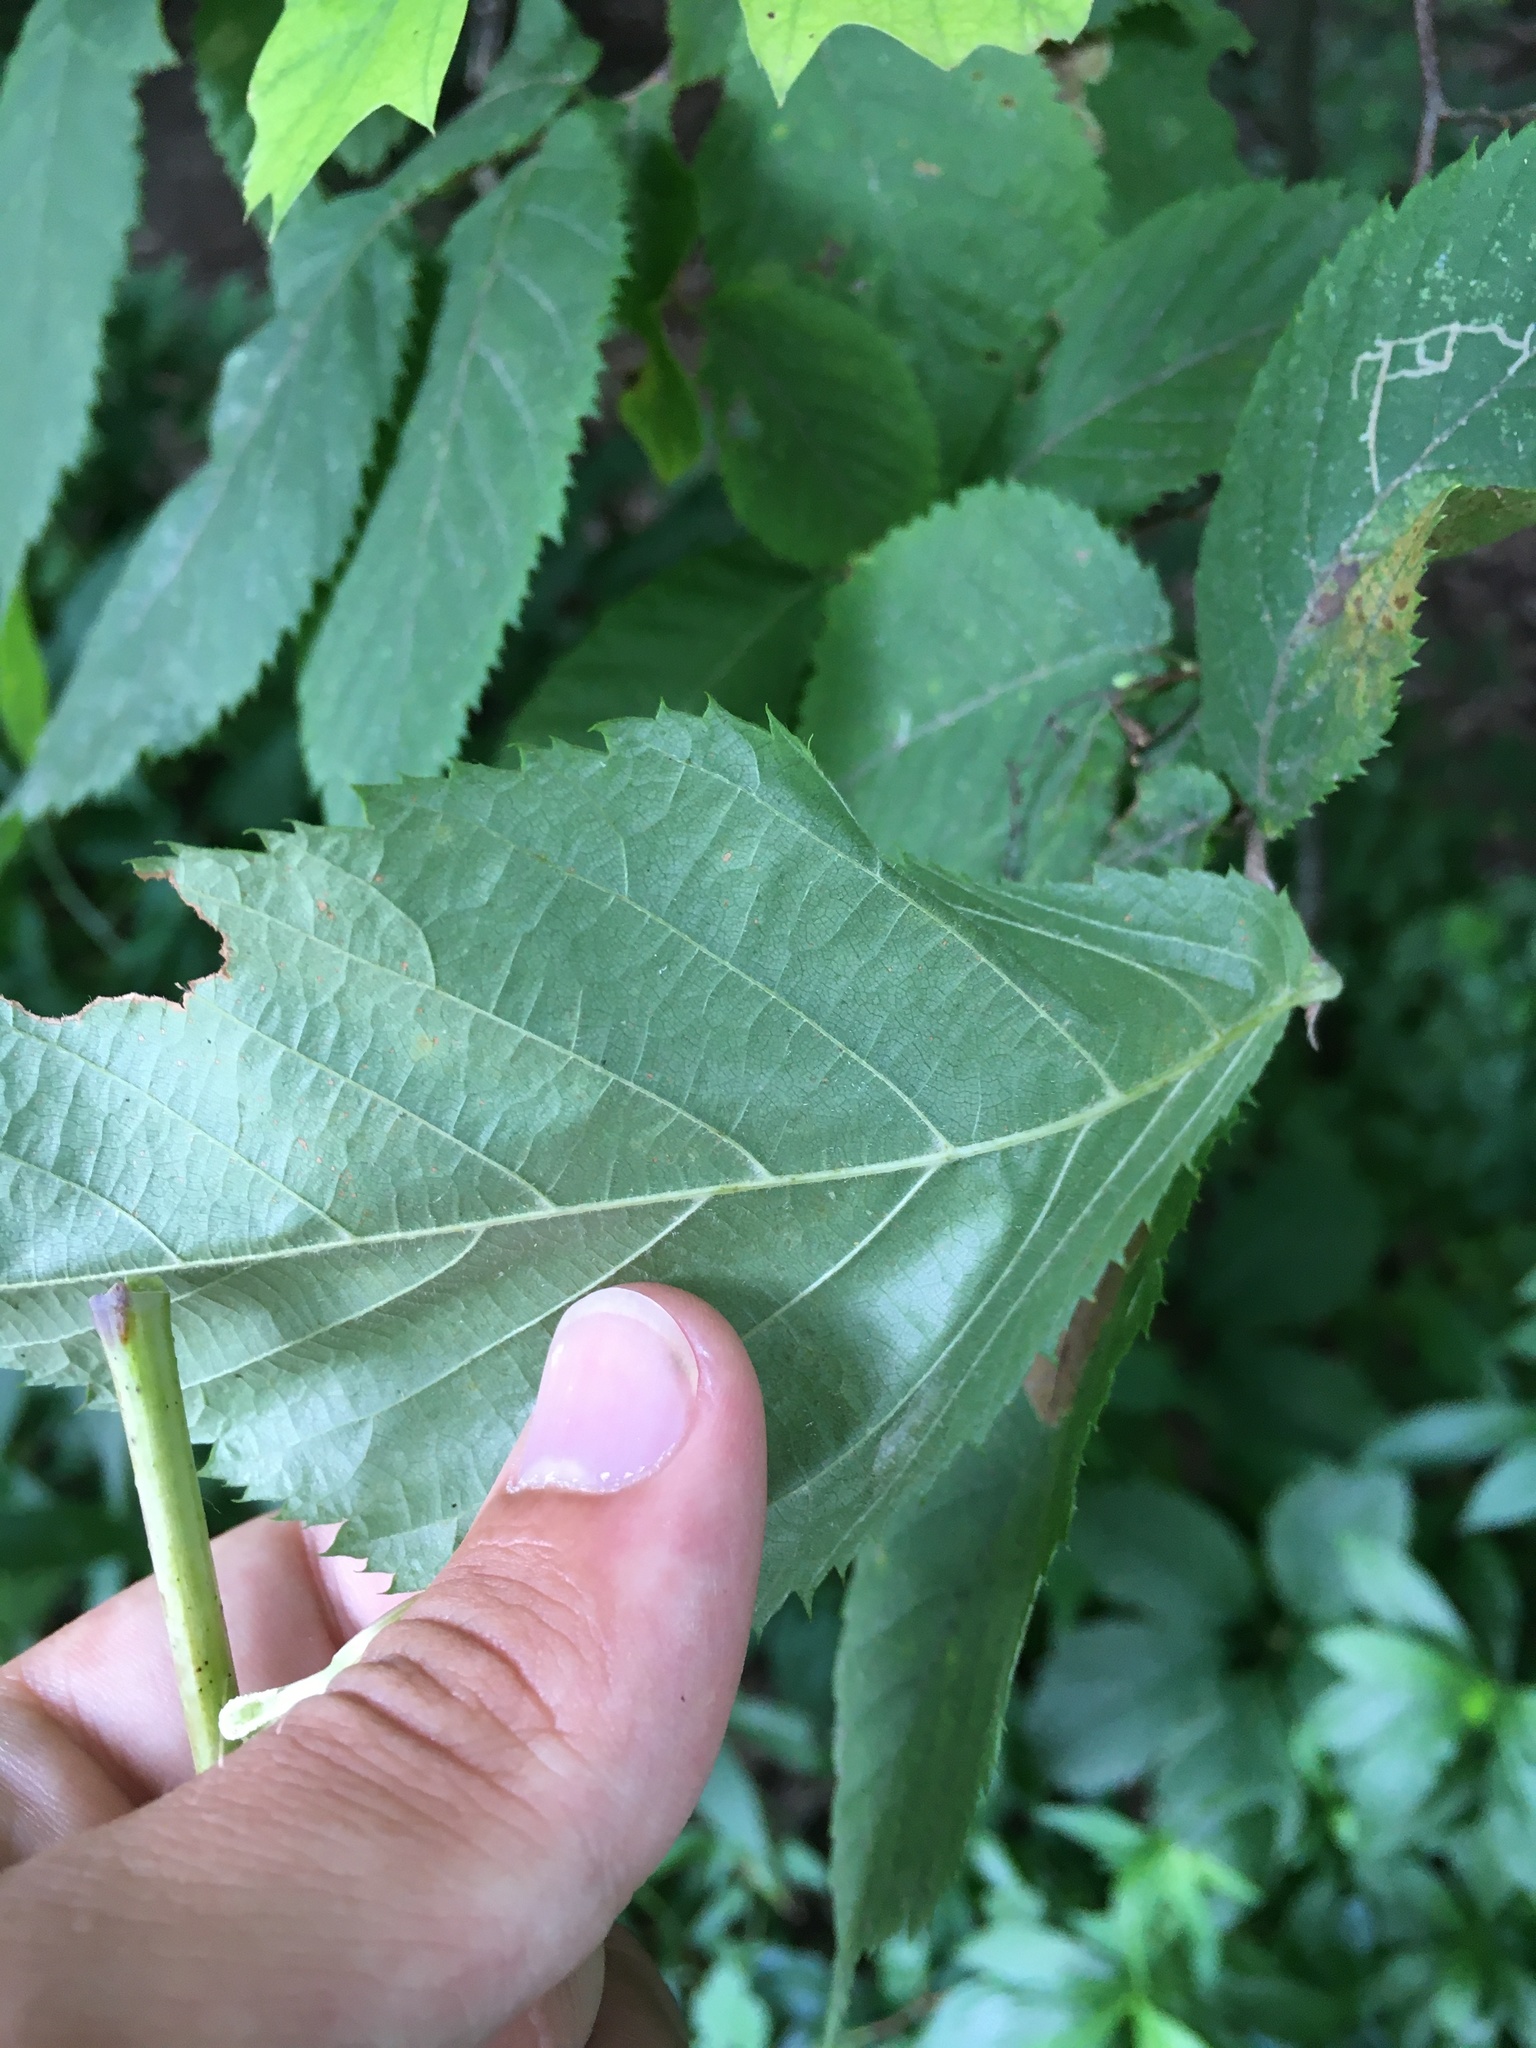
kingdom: Animalia
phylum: Arthropoda
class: Insecta
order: Lepidoptera
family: Gracillariidae
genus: Phyllonorycter
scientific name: Phyllonorycter tritaenianella
